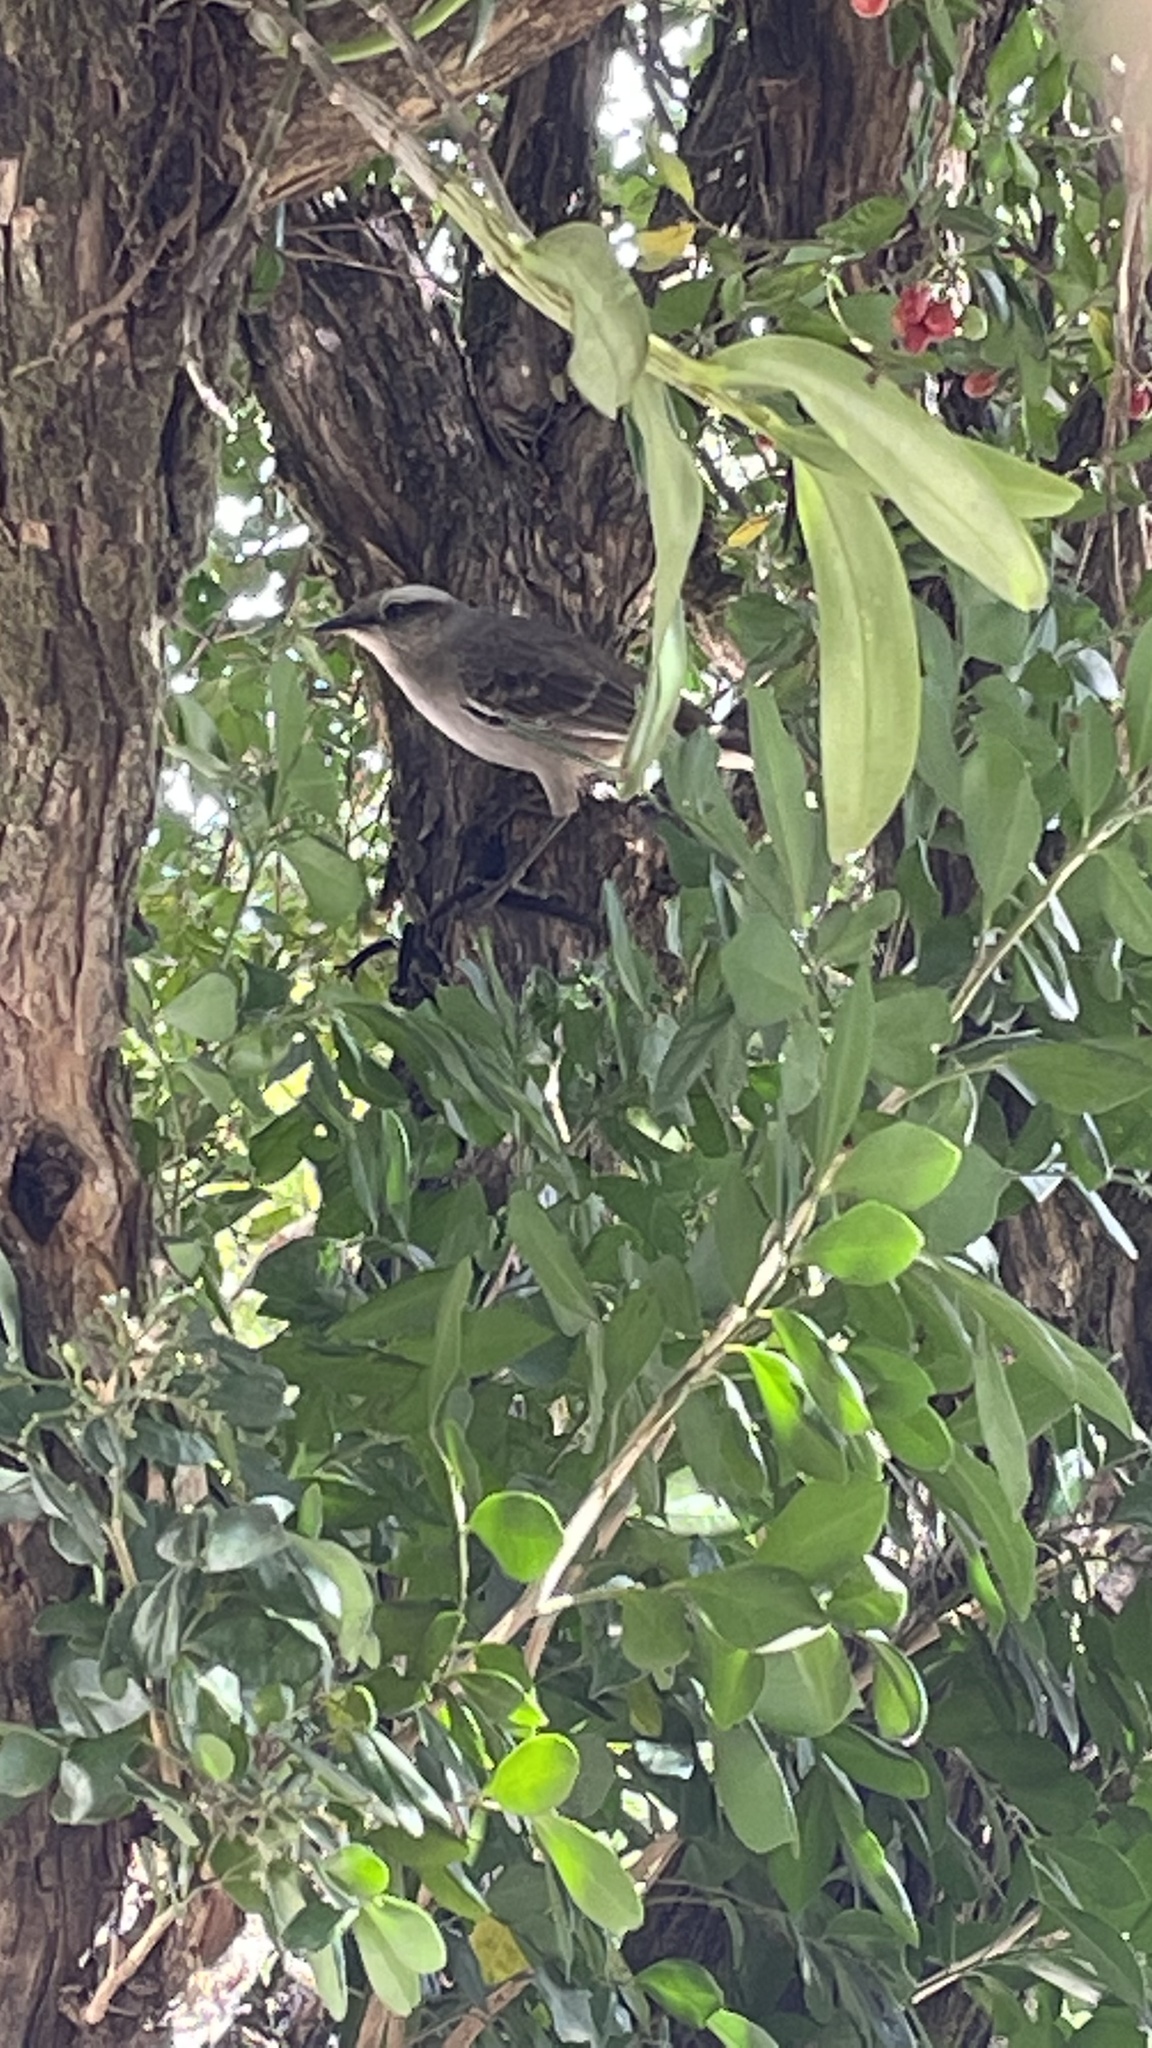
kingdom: Animalia
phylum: Chordata
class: Aves
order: Passeriformes
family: Mimidae
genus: Mimus
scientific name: Mimus saturninus
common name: Chalk-browed mockingbird
